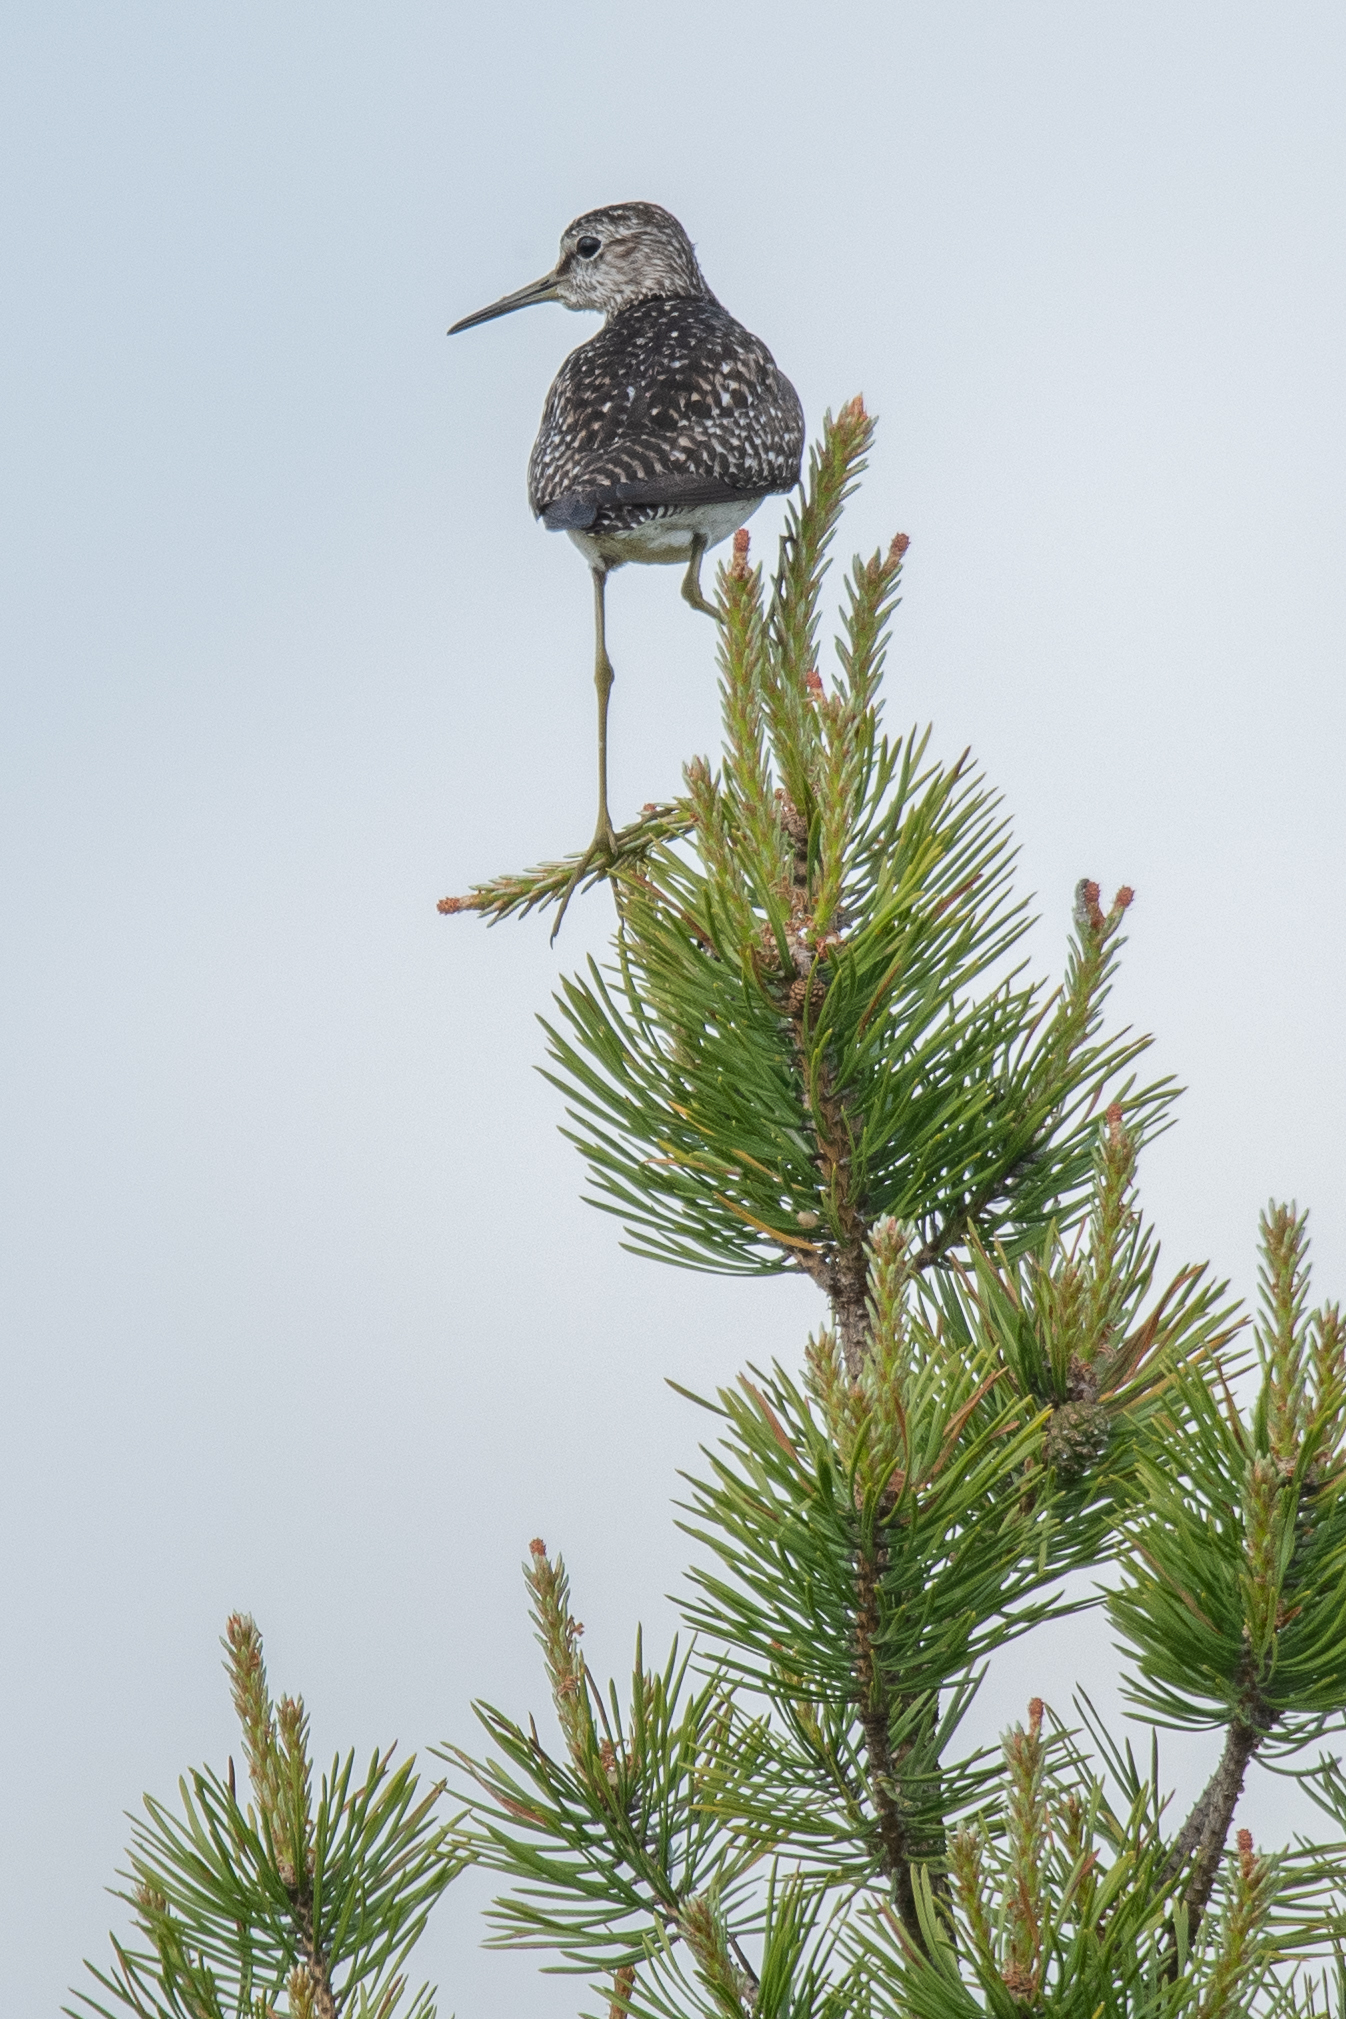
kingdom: Animalia
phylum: Chordata
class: Aves
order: Charadriiformes
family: Scolopacidae
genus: Tringa
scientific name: Tringa glareola
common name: Wood sandpiper
